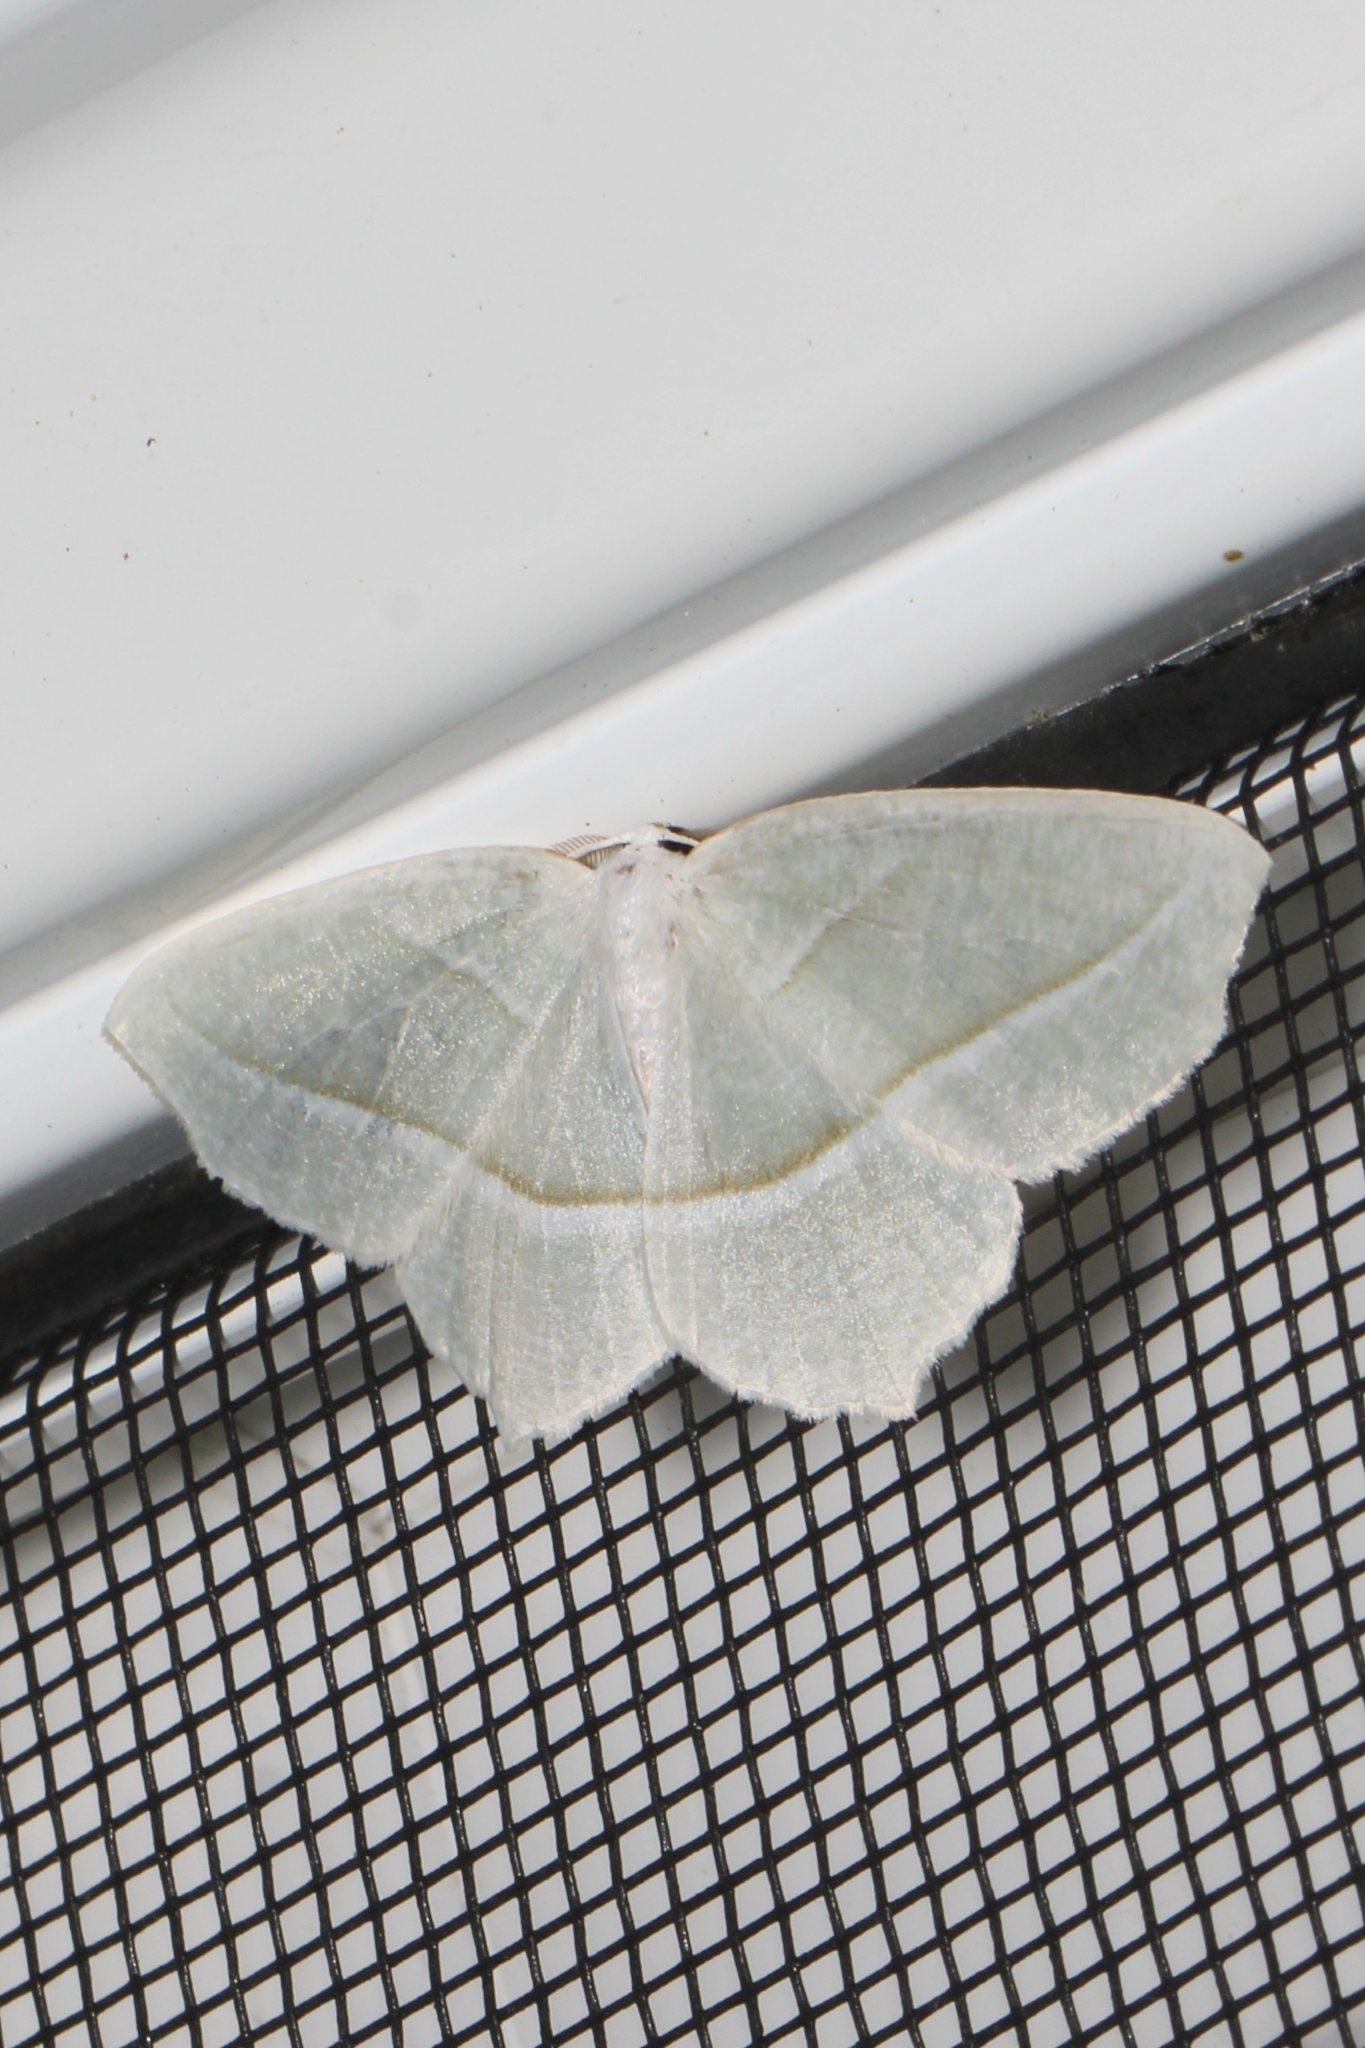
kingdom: Animalia
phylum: Arthropoda
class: Insecta
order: Lepidoptera
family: Geometridae
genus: Campaea
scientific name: Campaea perlata
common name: Fringed looper
